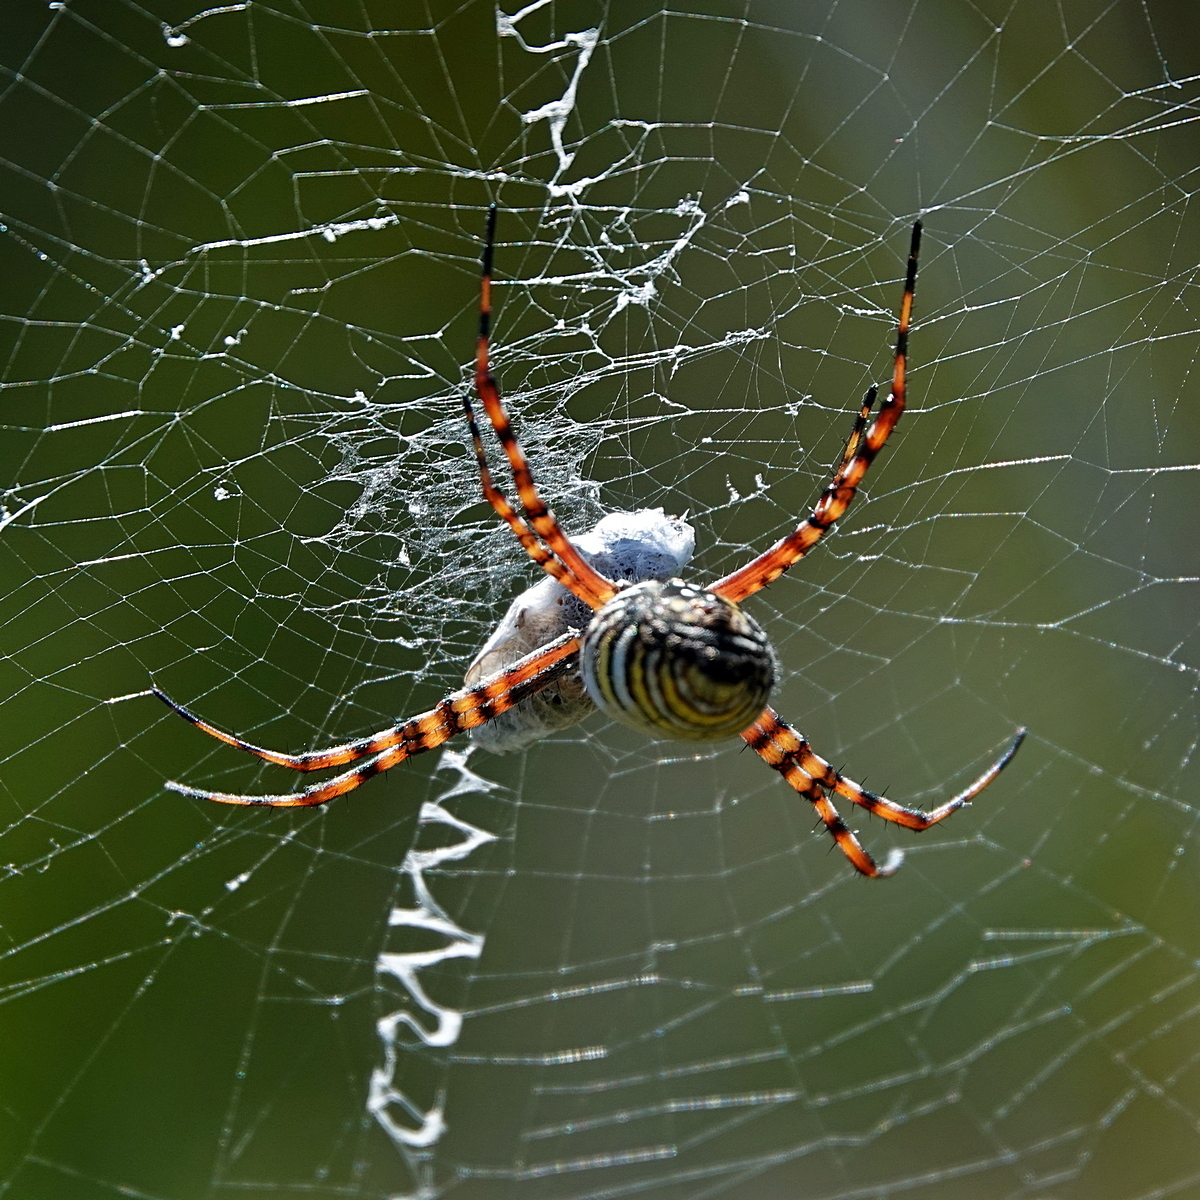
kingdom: Animalia
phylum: Arthropoda
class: Arachnida
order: Araneae
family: Araneidae
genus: Argiope
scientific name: Argiope trifasciata
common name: Banded garden spider
